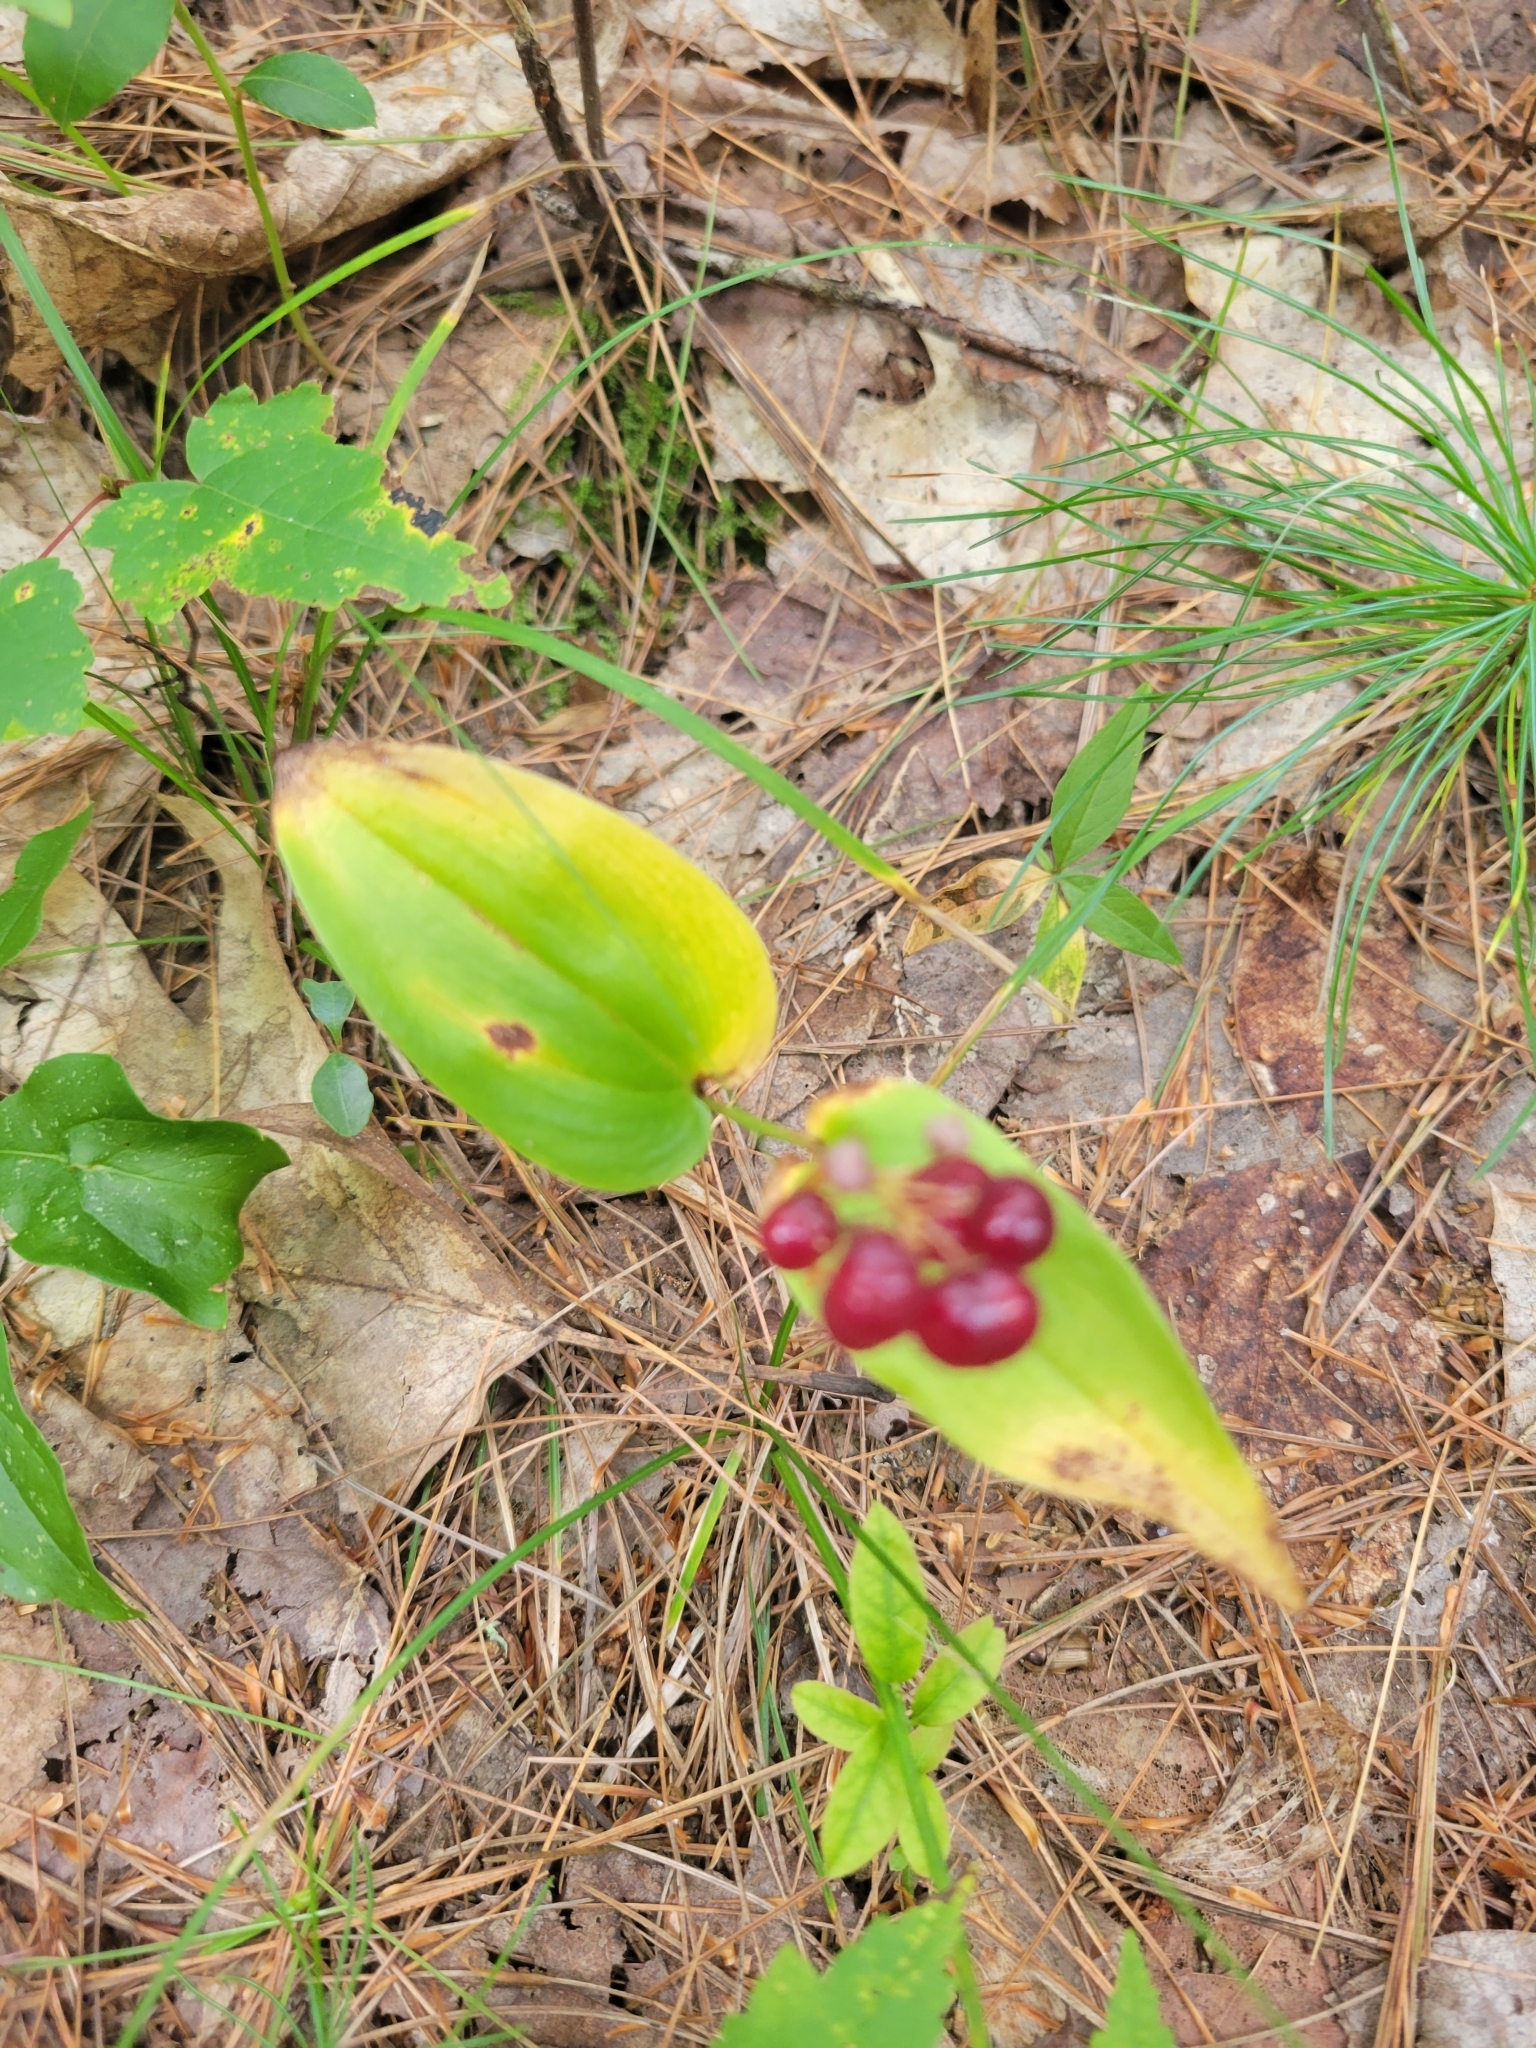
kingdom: Plantae
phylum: Tracheophyta
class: Liliopsida
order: Asparagales
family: Asparagaceae
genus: Maianthemum
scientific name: Maianthemum canadense
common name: False lily-of-the-valley
